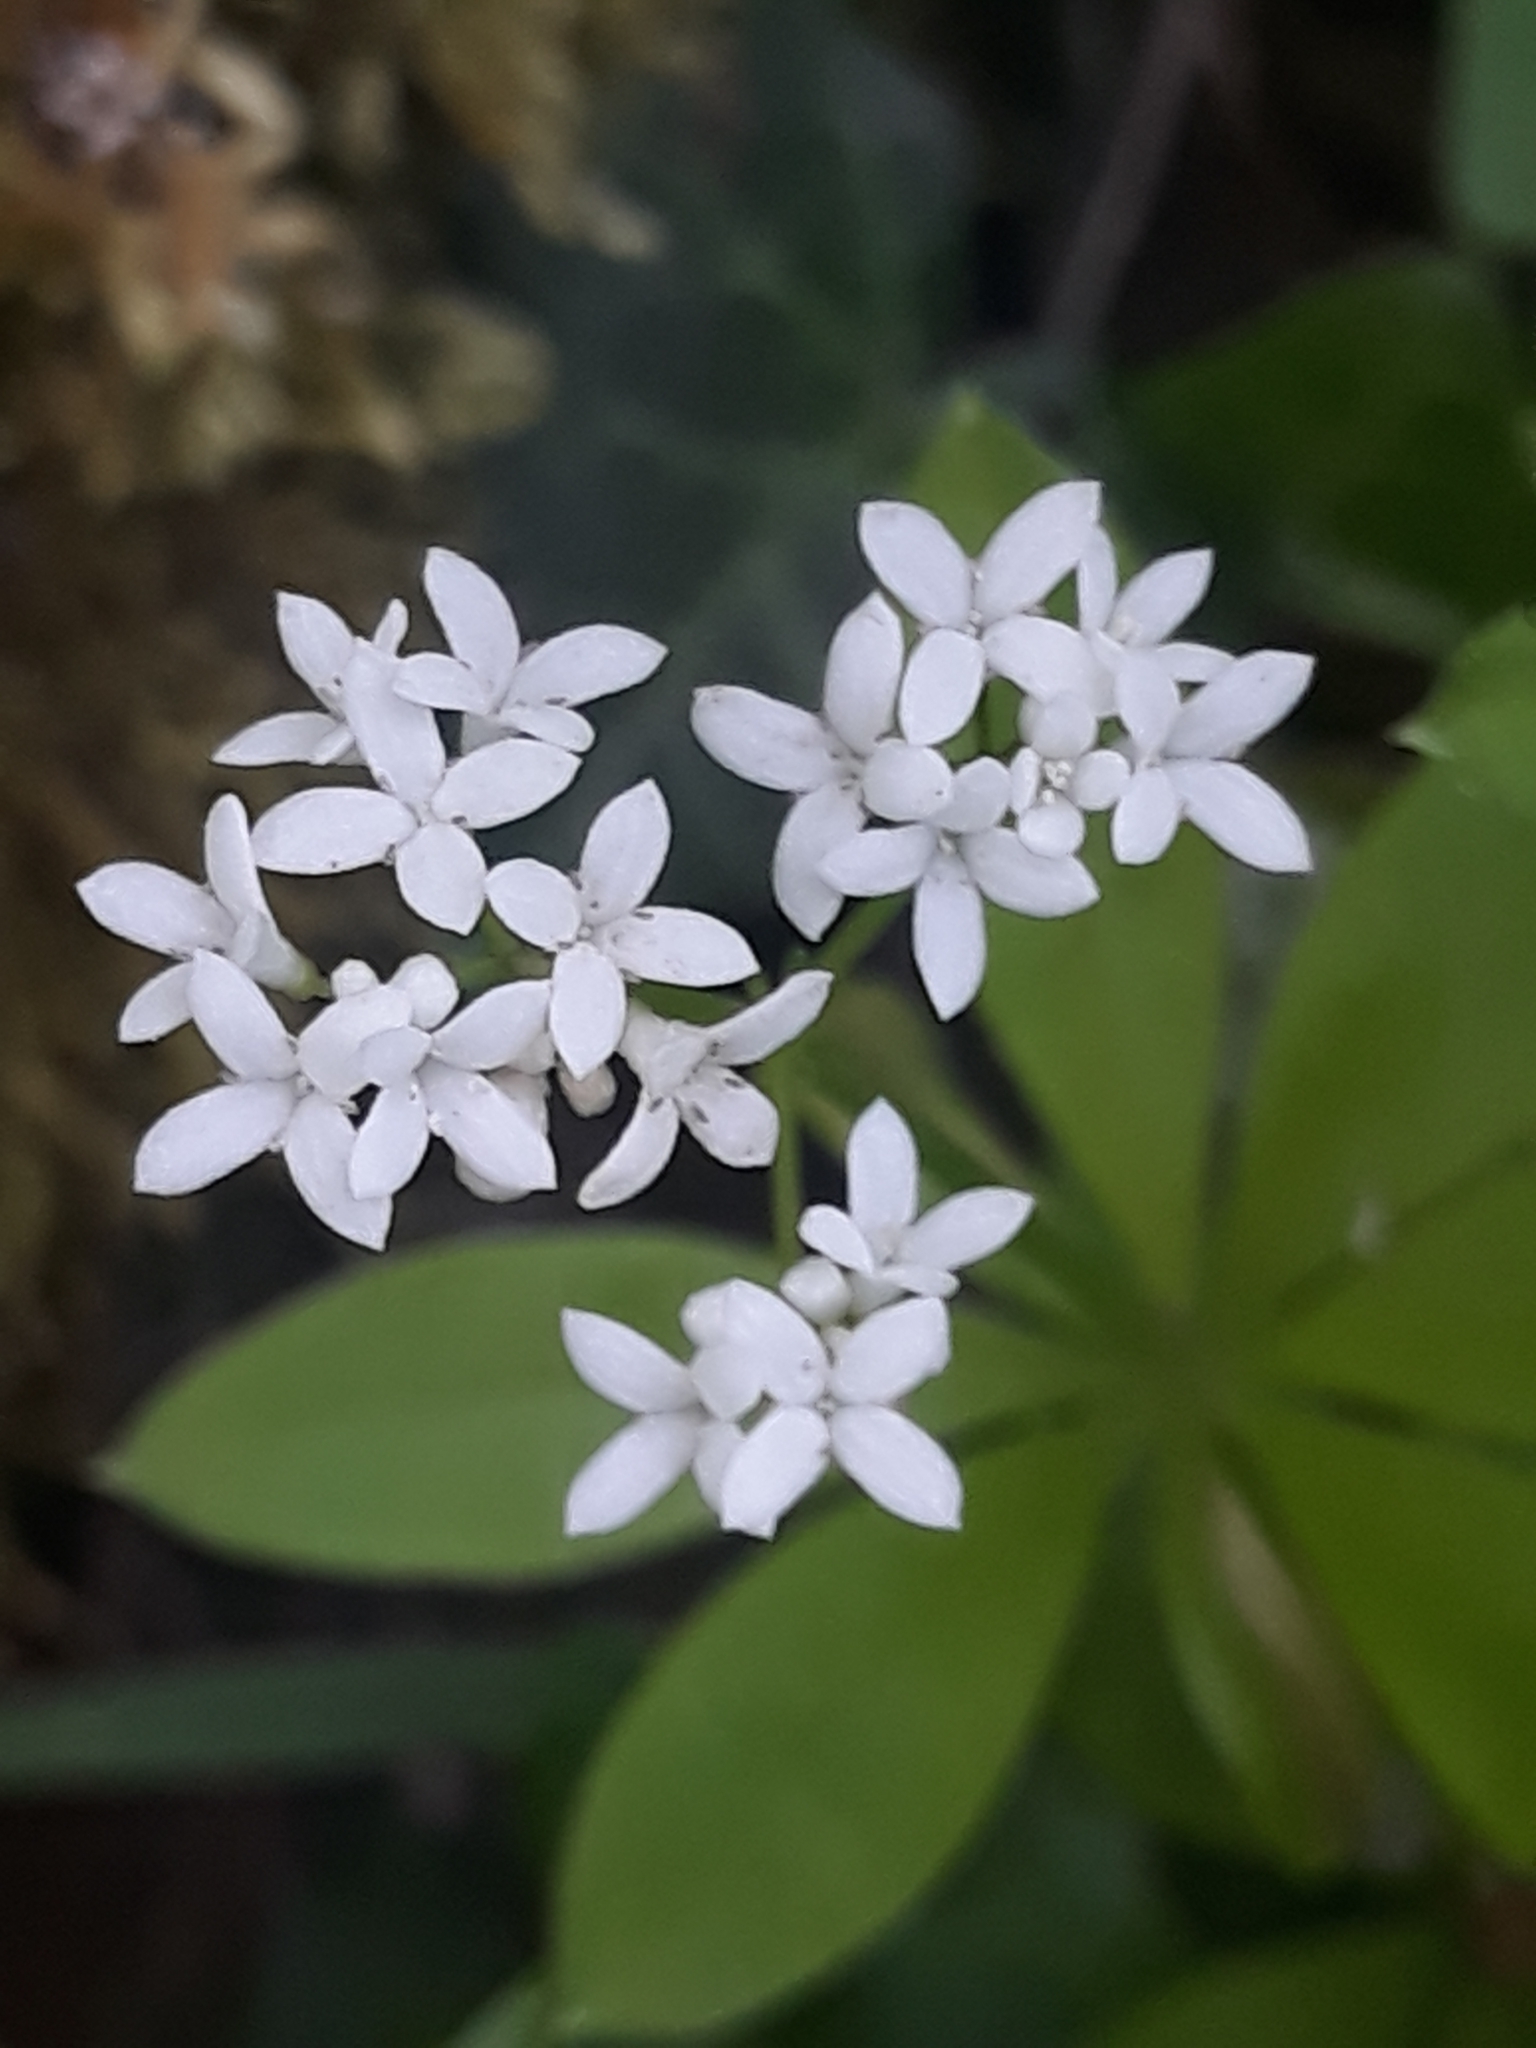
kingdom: Plantae
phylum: Tracheophyta
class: Magnoliopsida
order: Gentianales
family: Rubiaceae
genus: Galium
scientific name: Galium odoratum
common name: Sweet woodruff
